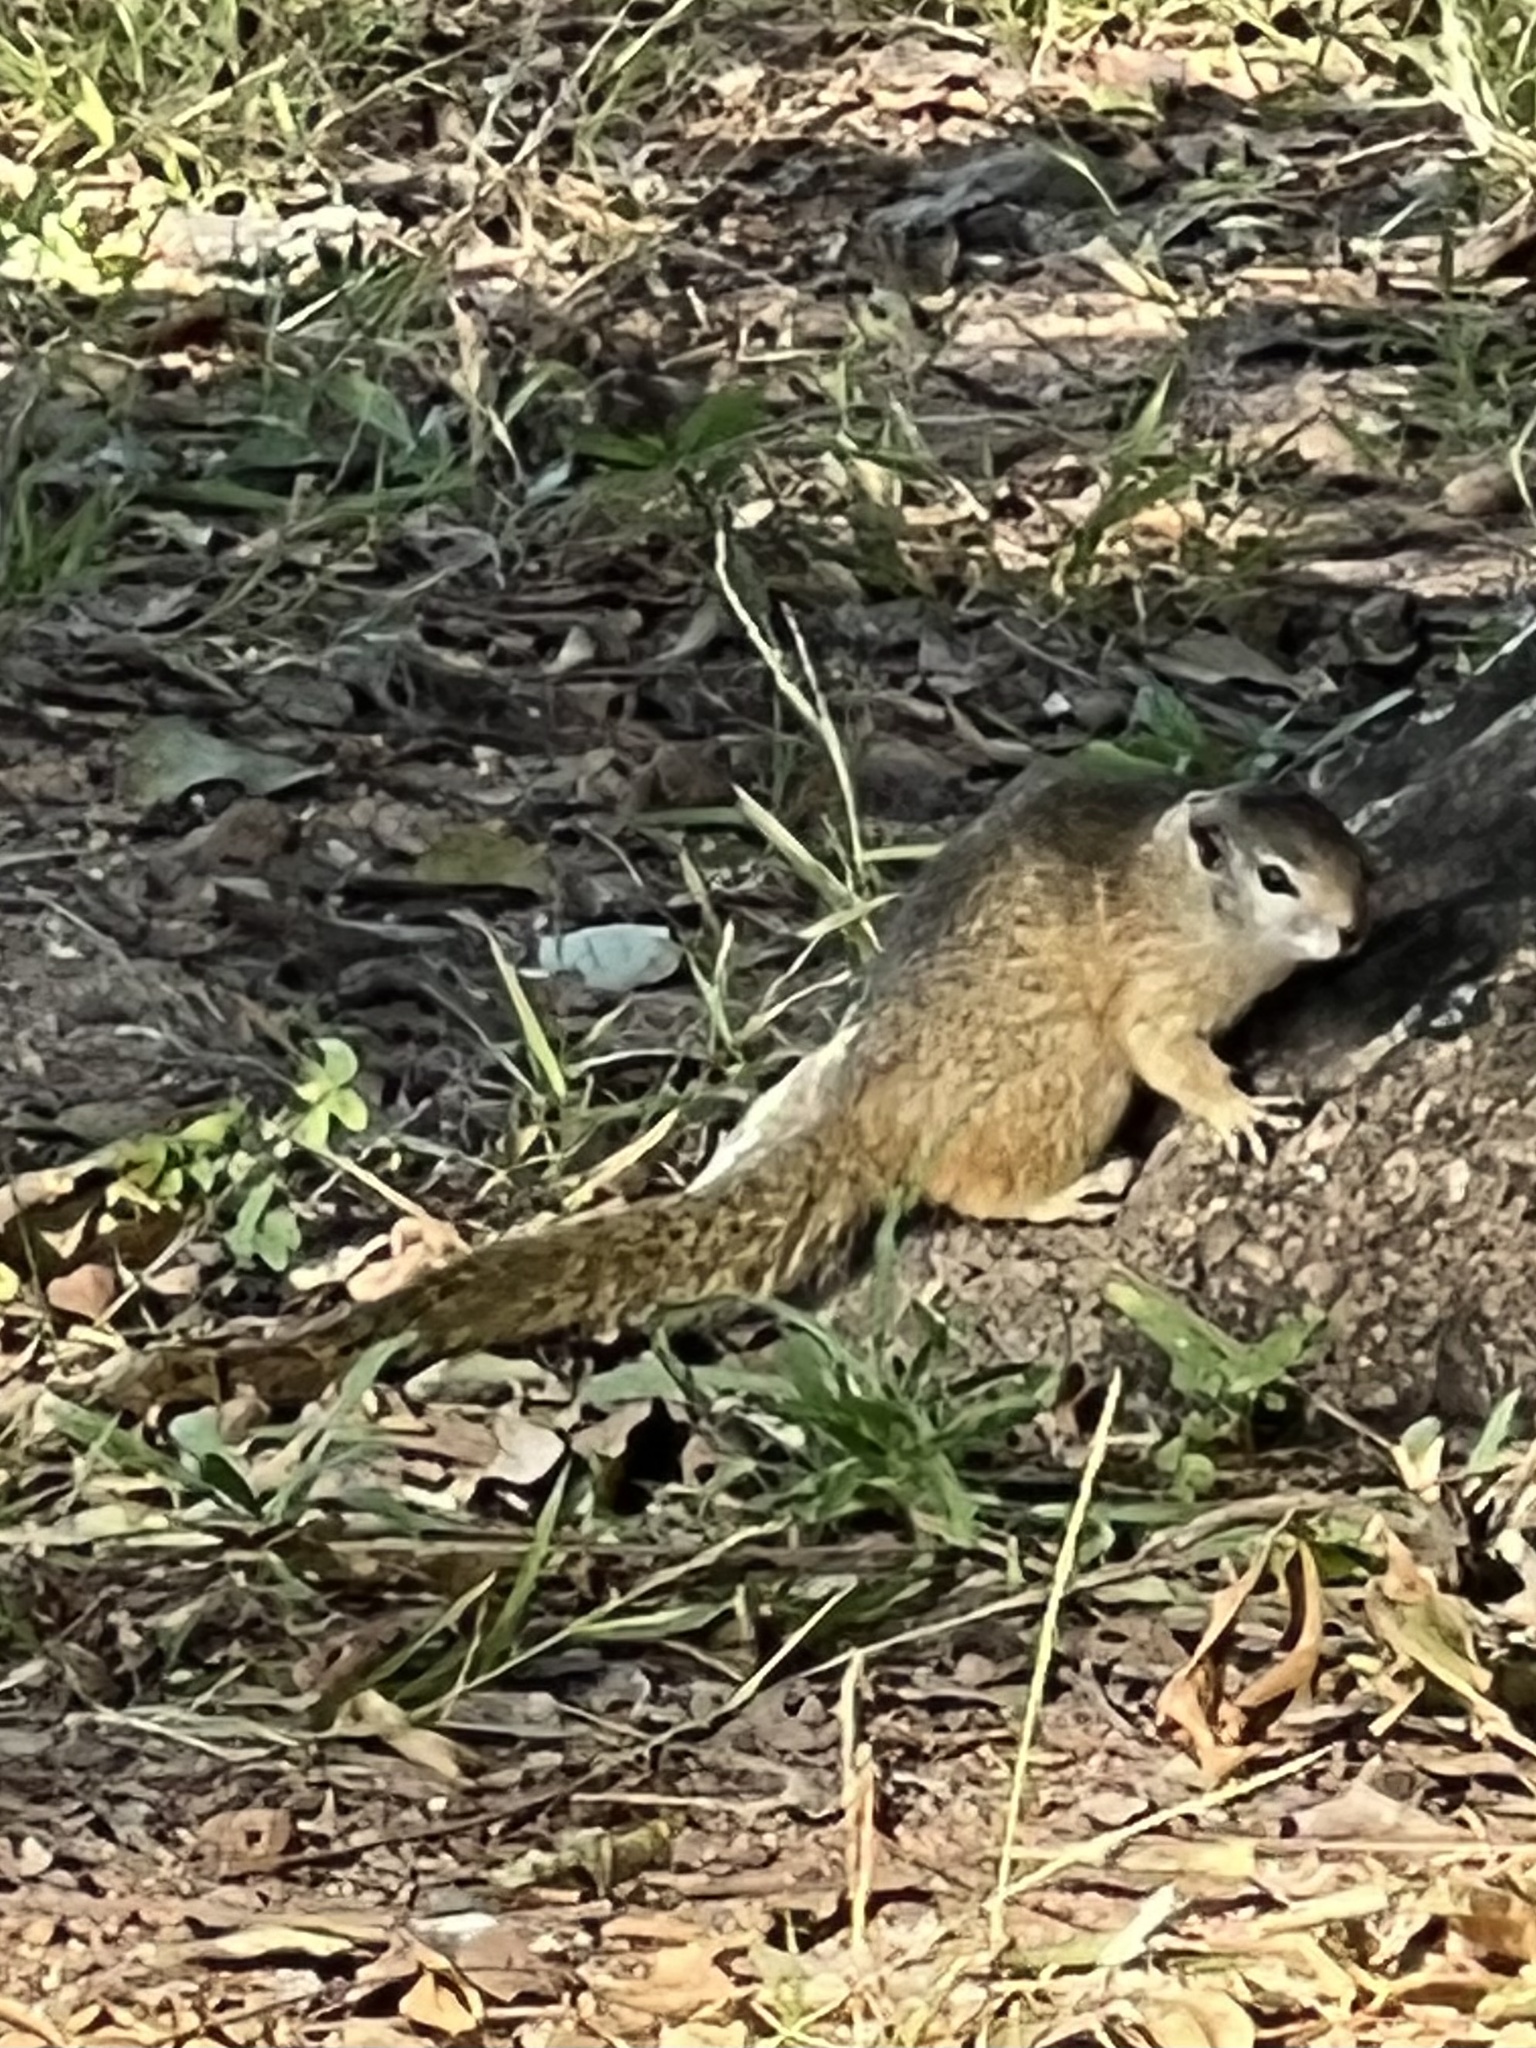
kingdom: Animalia
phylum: Chordata
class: Mammalia
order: Rodentia
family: Sciuridae
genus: Paraxerus
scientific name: Paraxerus cepapi
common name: Smith's bush squirrel
